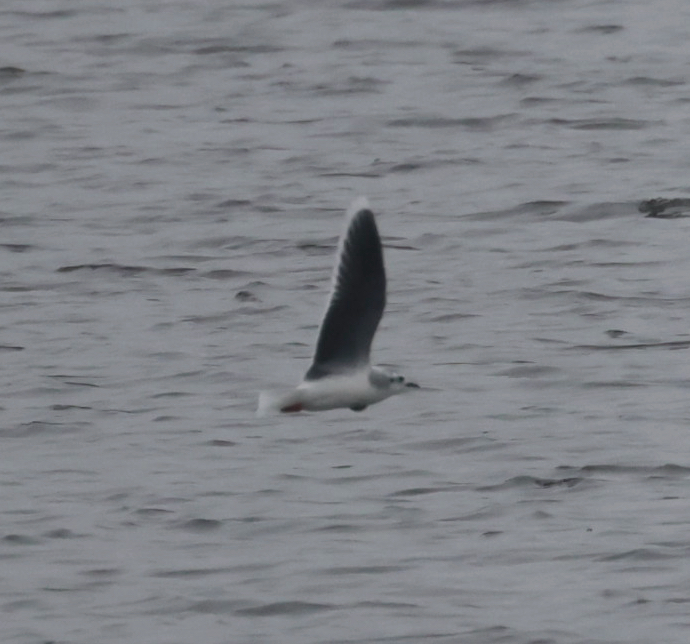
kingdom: Animalia
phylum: Chordata
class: Aves
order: Charadriiformes
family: Laridae
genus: Hydrocoloeus
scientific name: Hydrocoloeus minutus
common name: Little gull
